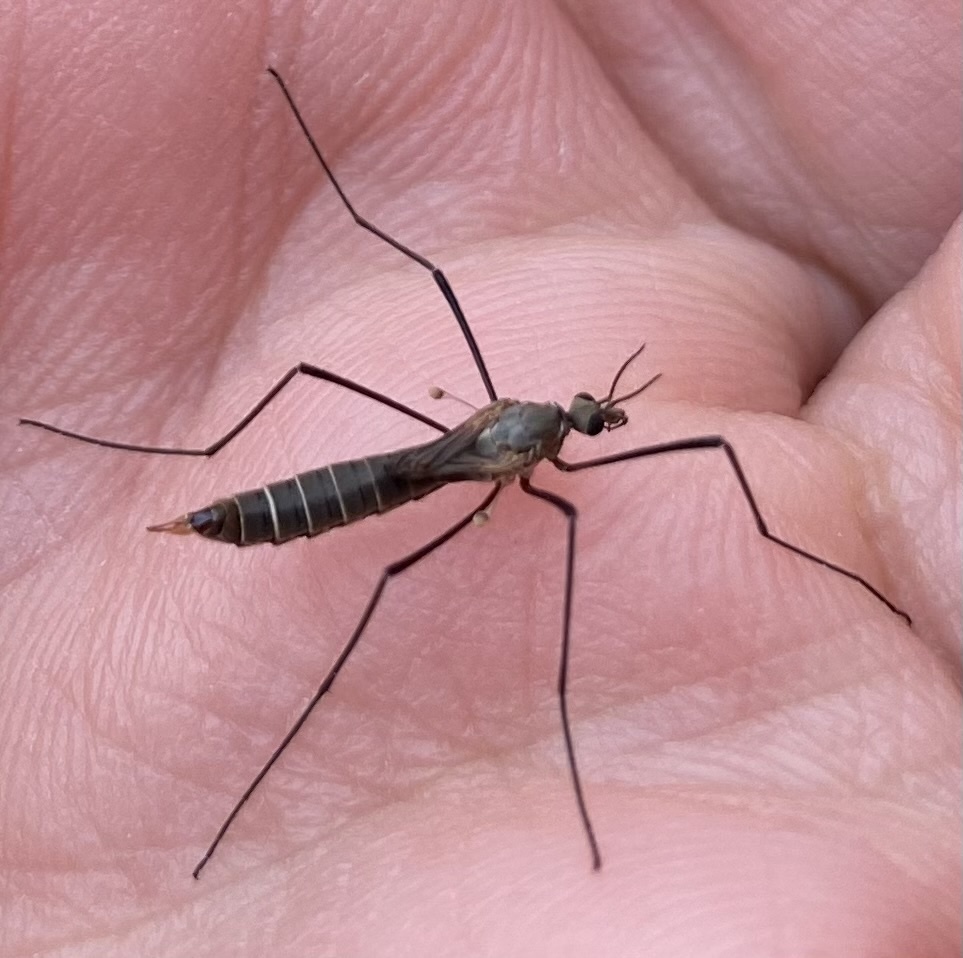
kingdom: Animalia
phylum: Arthropoda
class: Insecta
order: Diptera
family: Tipulidae
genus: Tipula
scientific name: Tipula pagana
